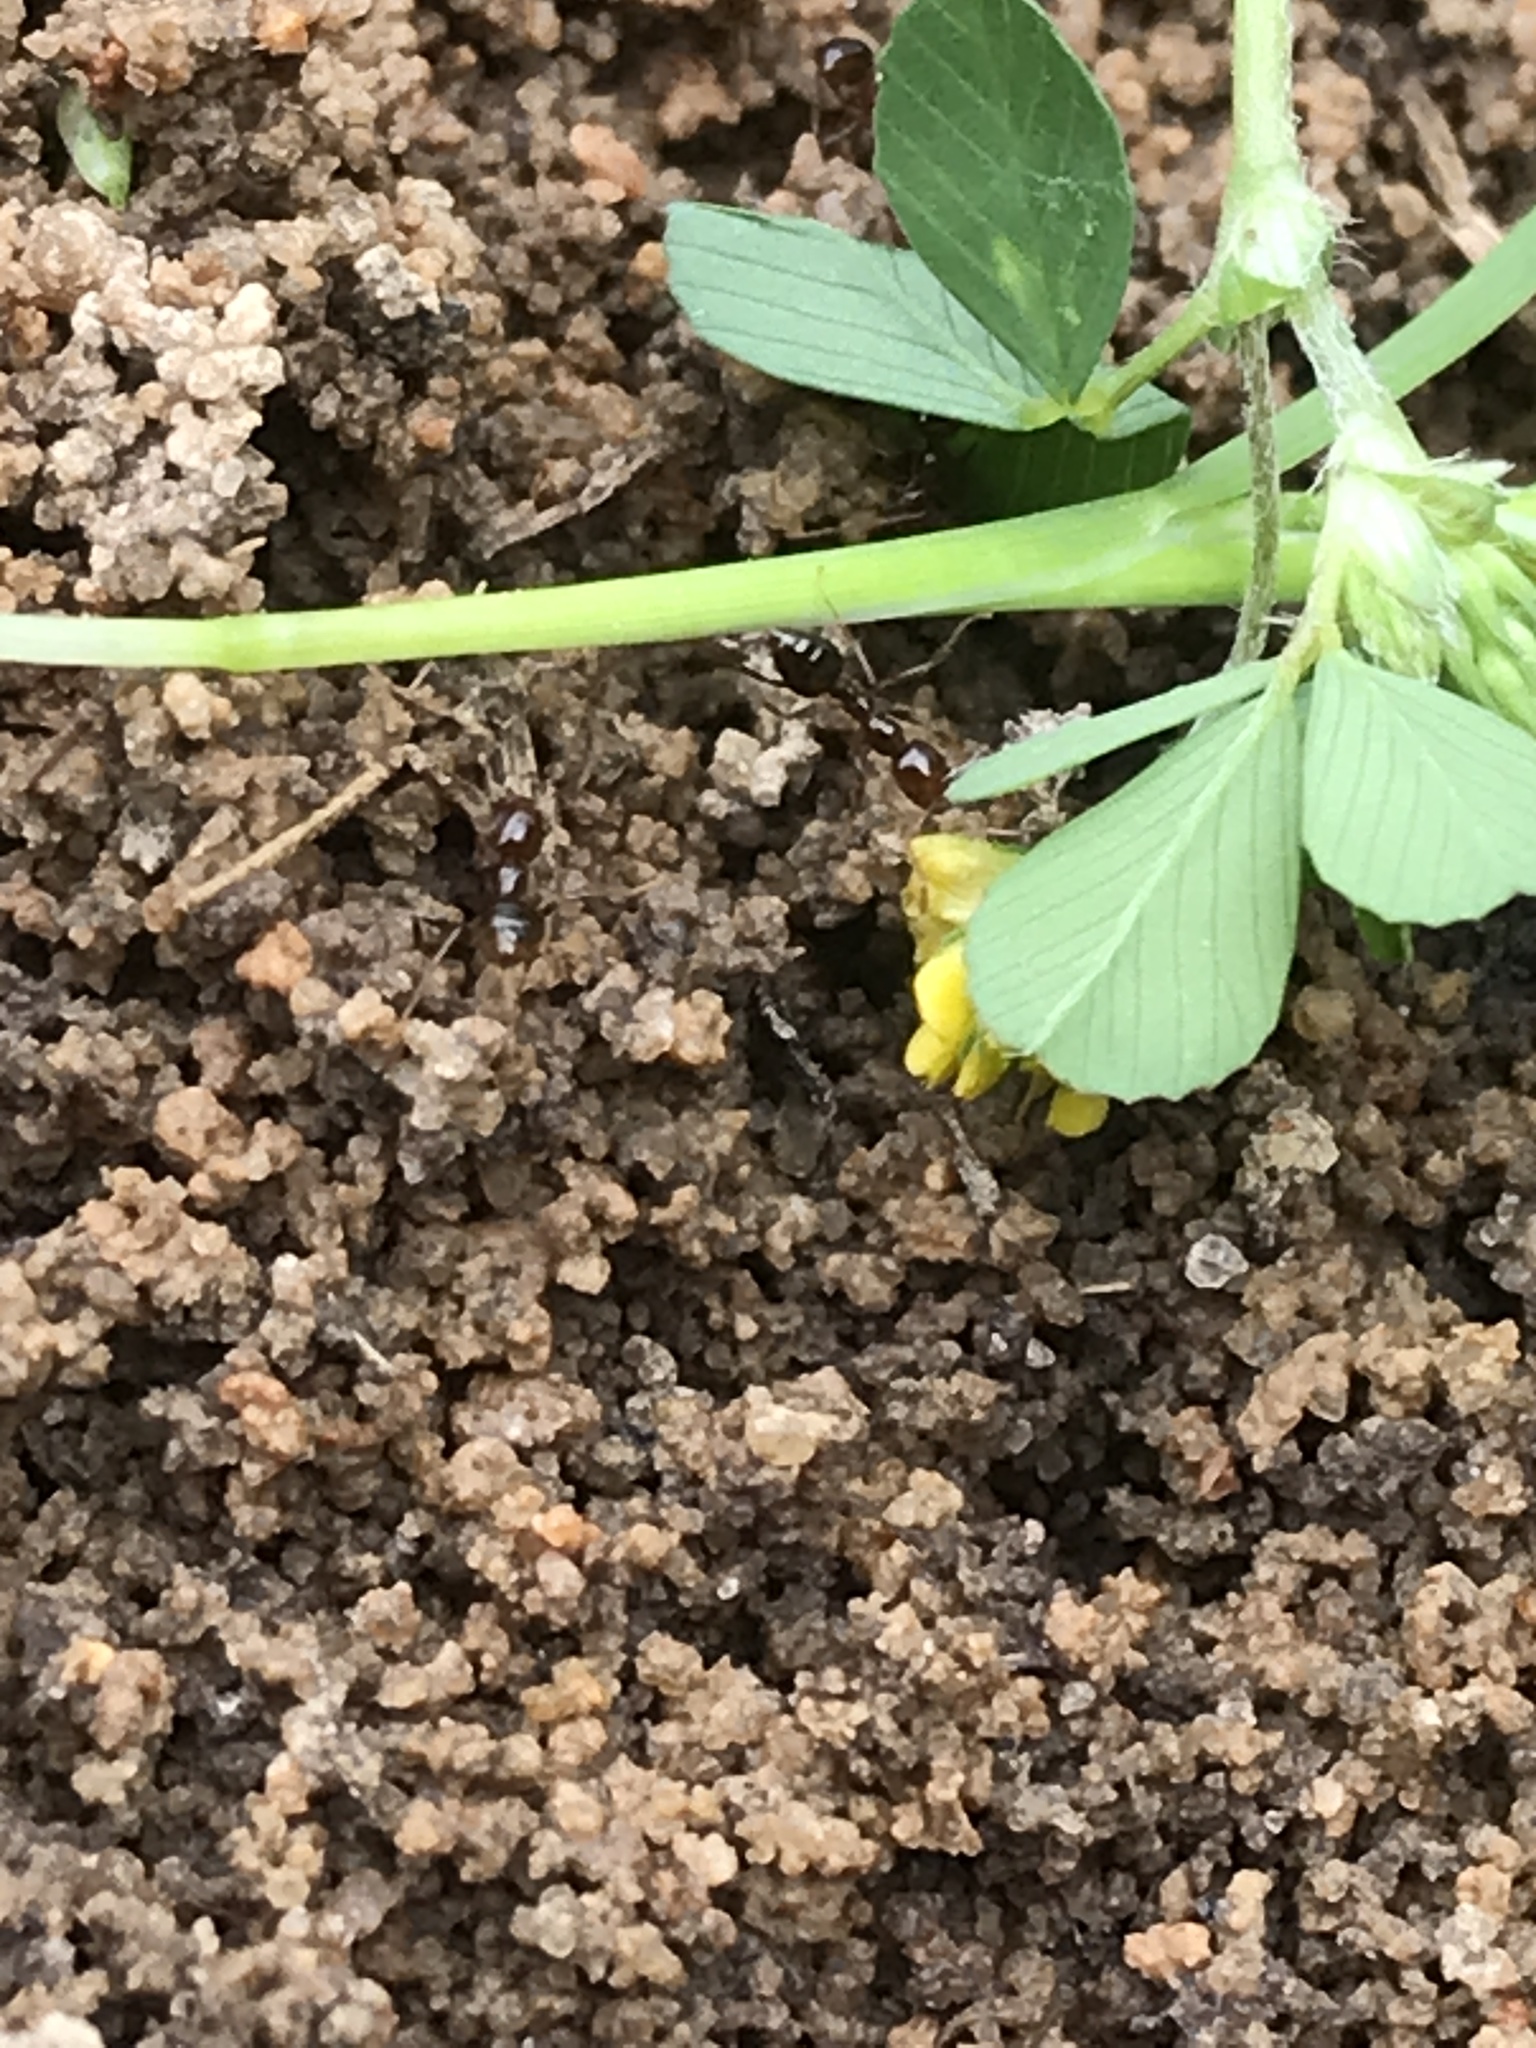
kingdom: Animalia
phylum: Arthropoda
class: Insecta
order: Hymenoptera
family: Formicidae
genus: Solenopsis
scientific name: Solenopsis invicta
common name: Red imported fire ant
